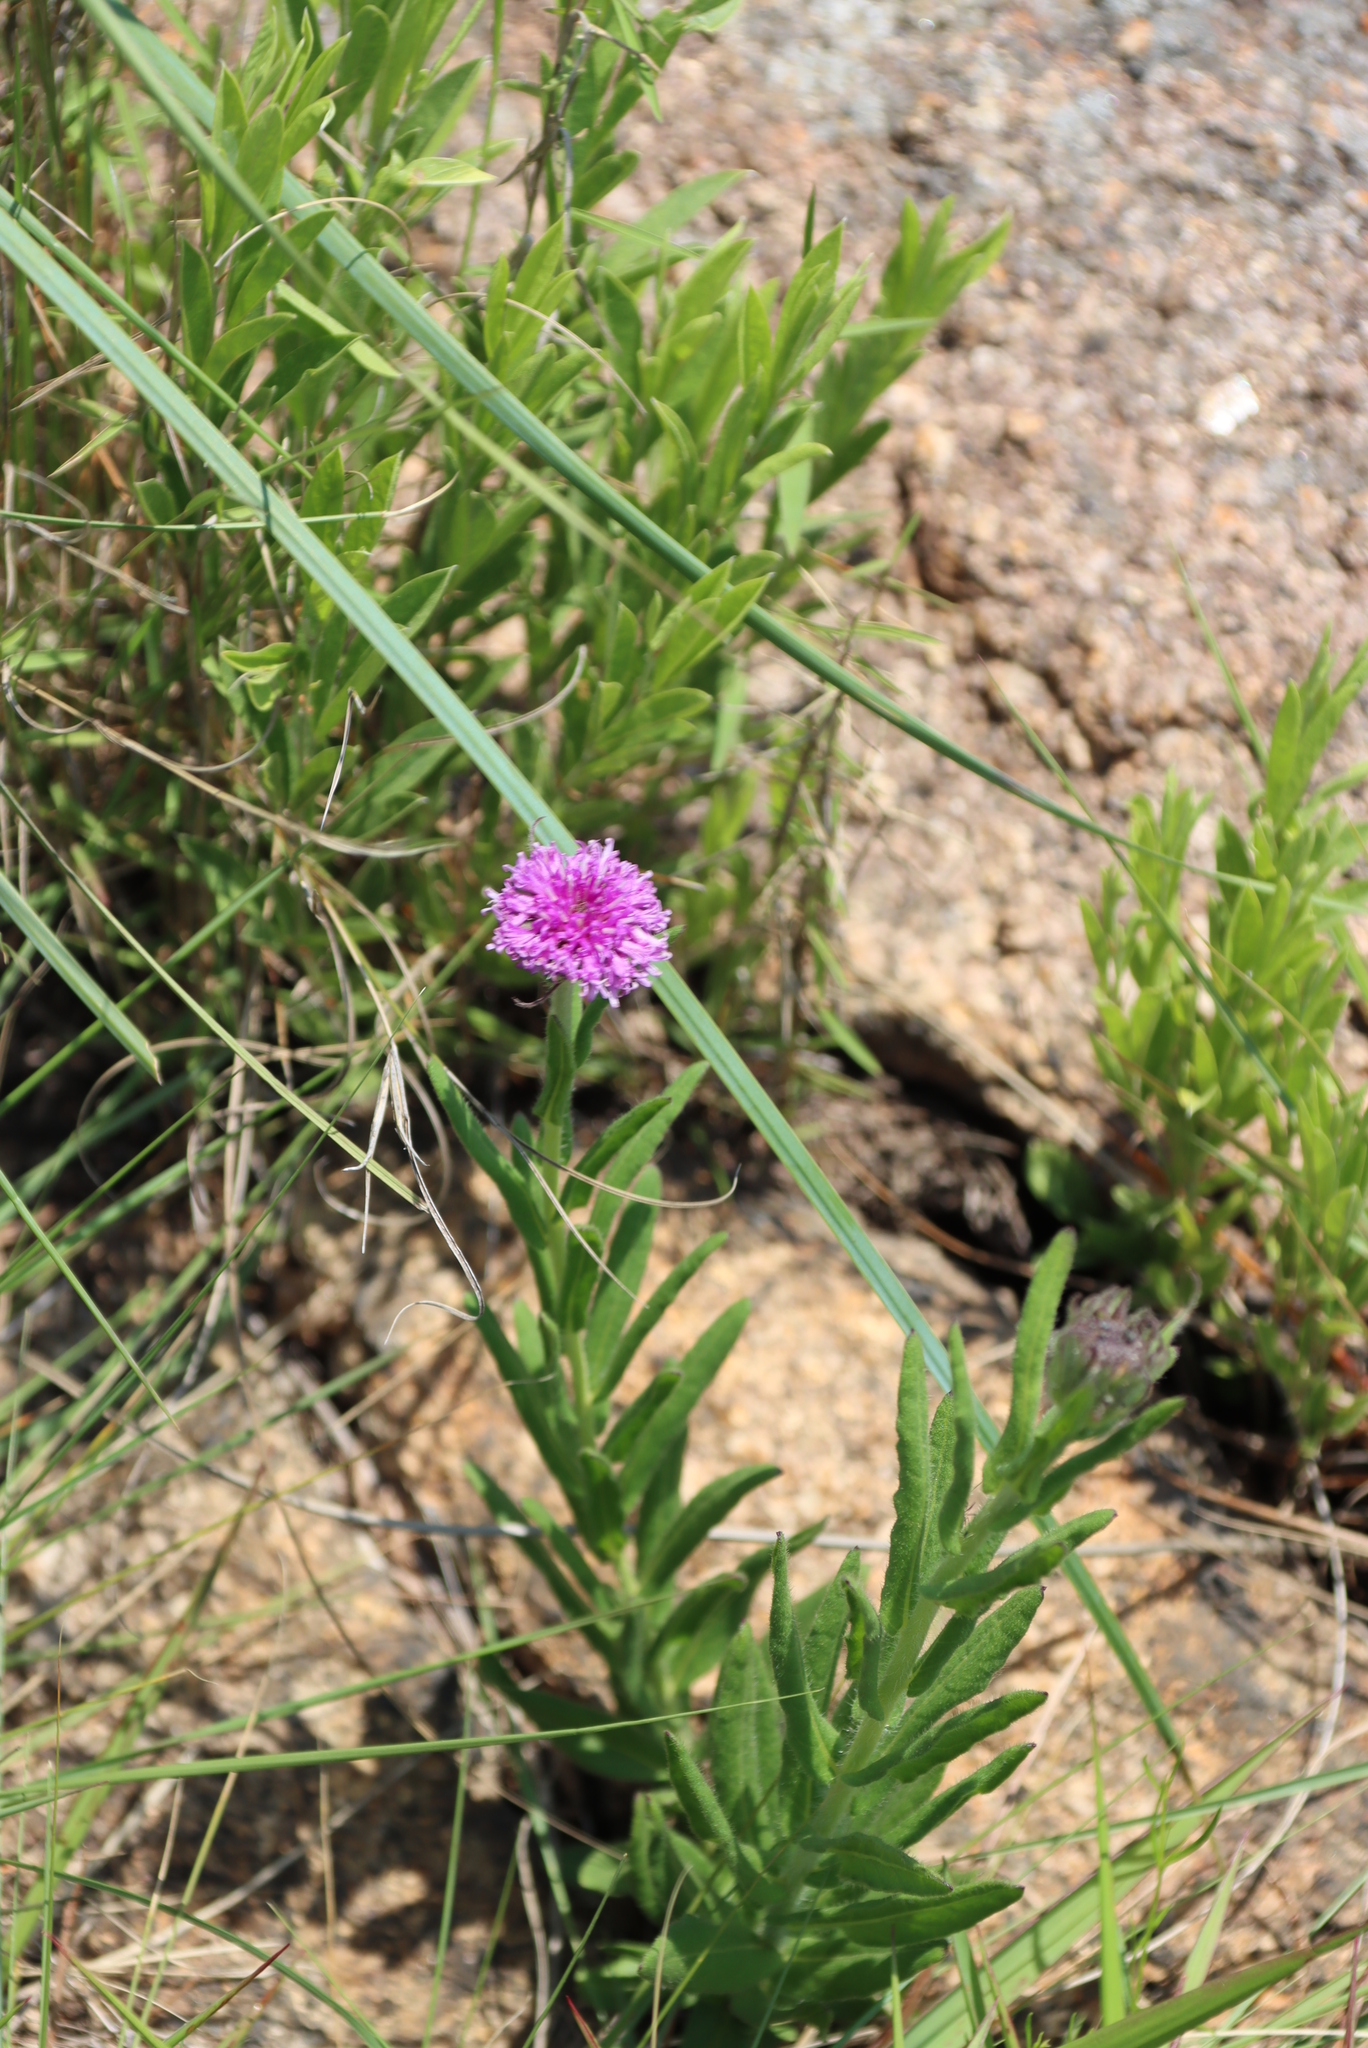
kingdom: Plantae
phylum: Tracheophyta
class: Magnoliopsida
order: Asterales
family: Asteraceae
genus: Pseudopegolettia
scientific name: Pseudopegolettia tenella
